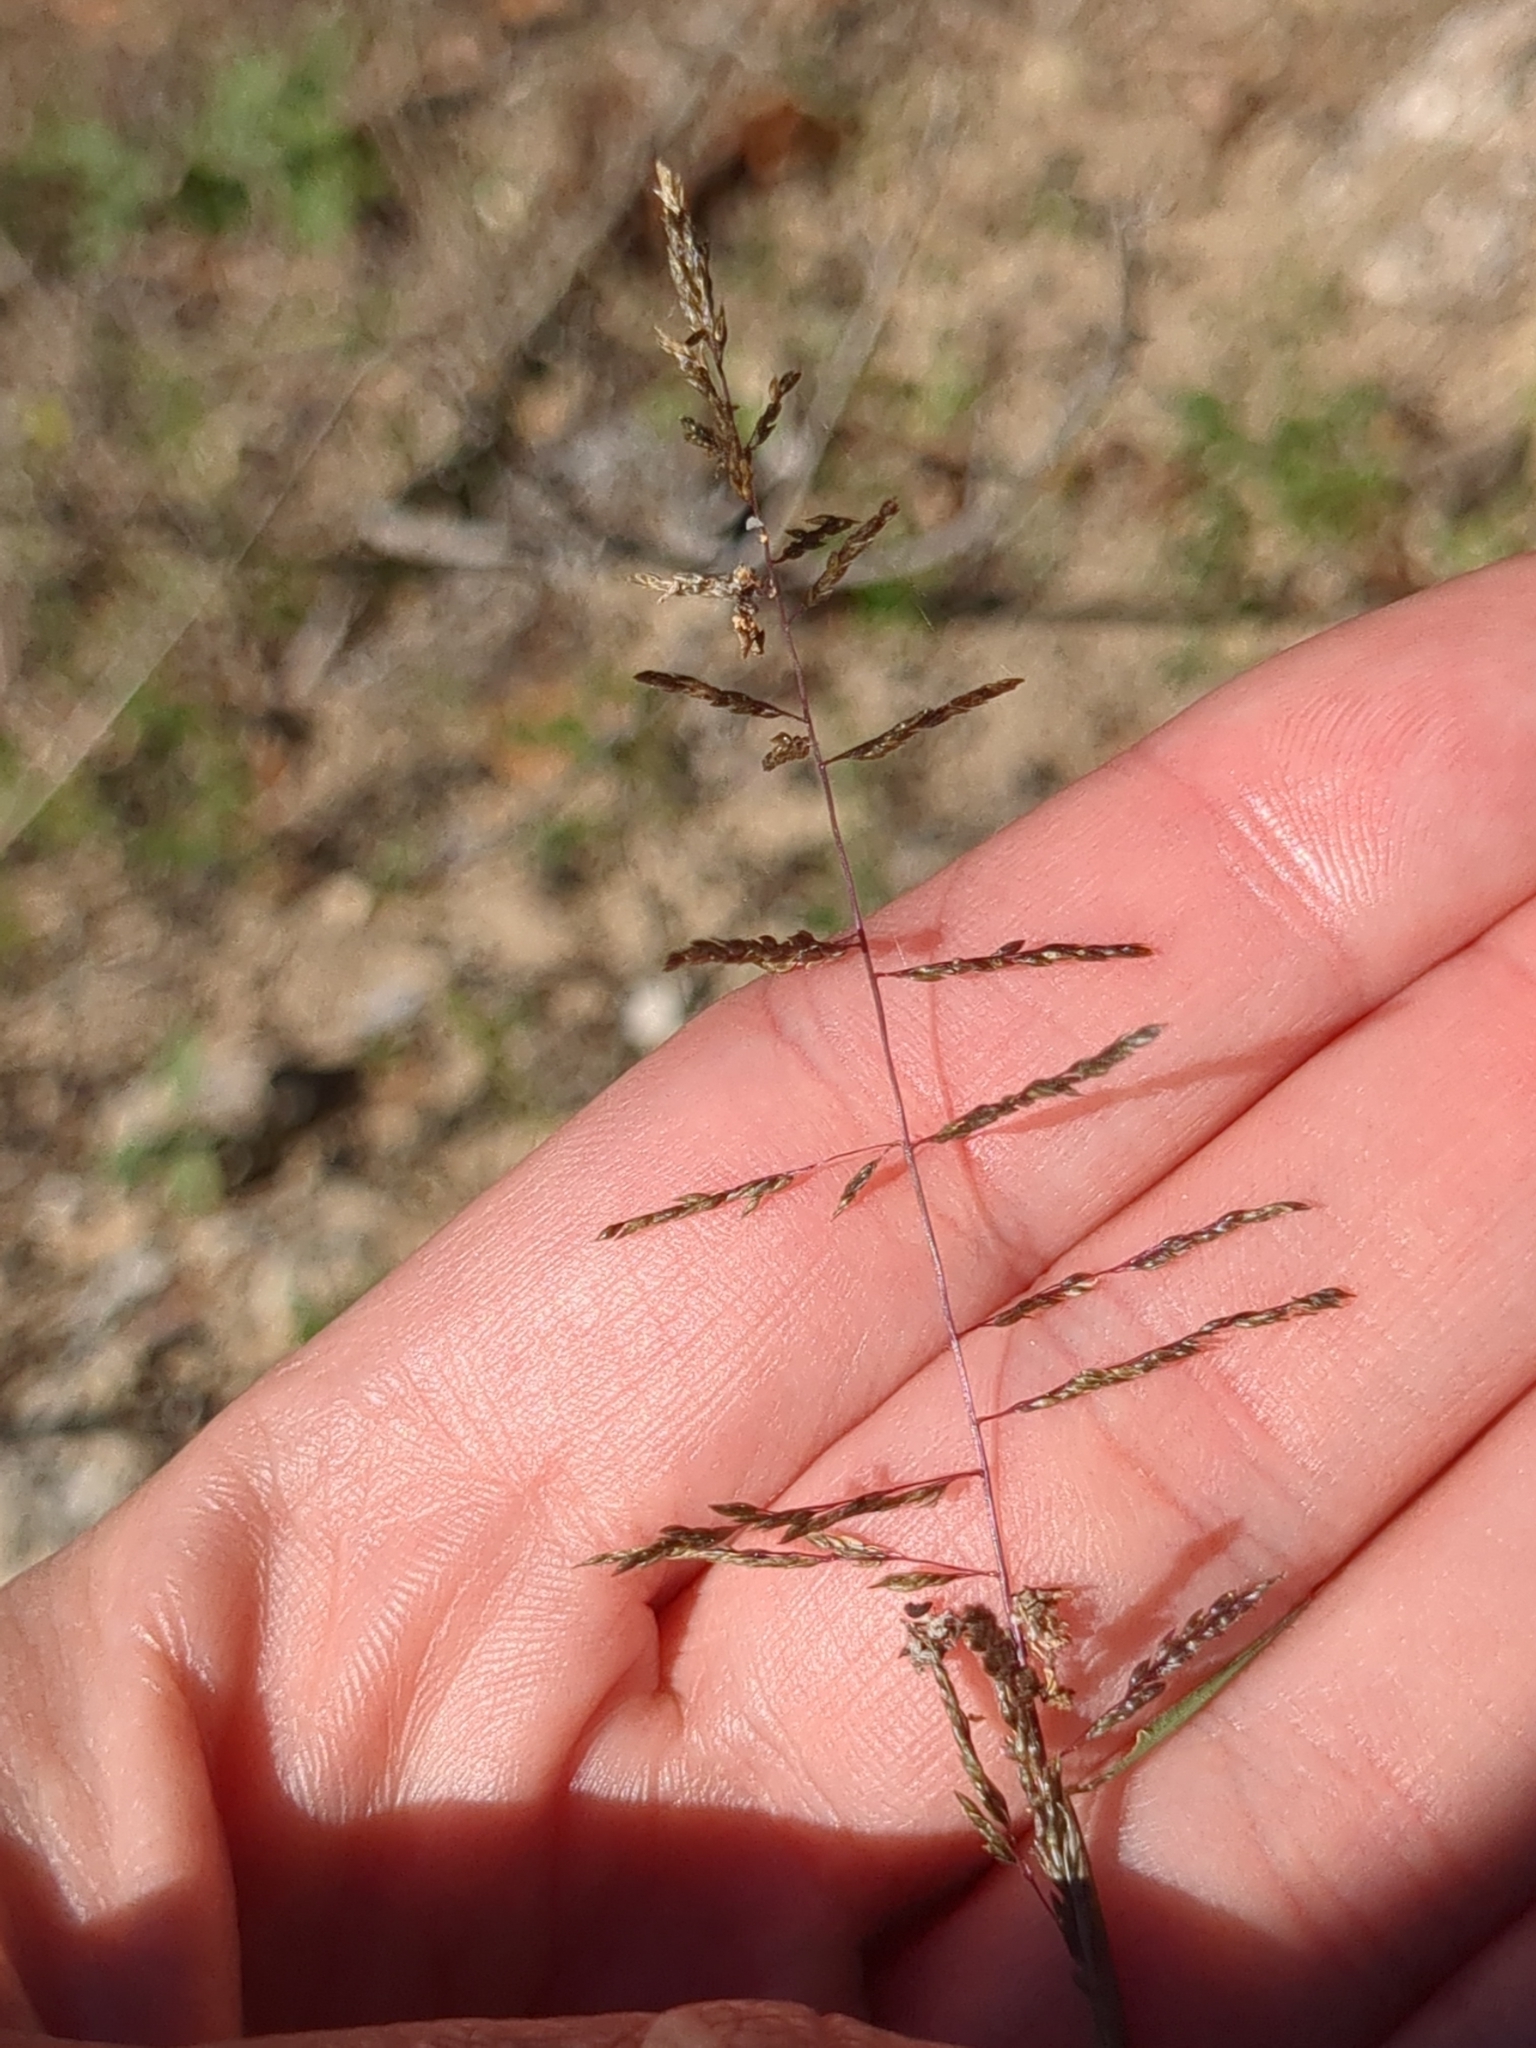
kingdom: Plantae
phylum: Tracheophyta
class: Liliopsida
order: Poales
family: Poaceae
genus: Sporobolus
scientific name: Sporobolus cryptandrus
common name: Sand dropseed
